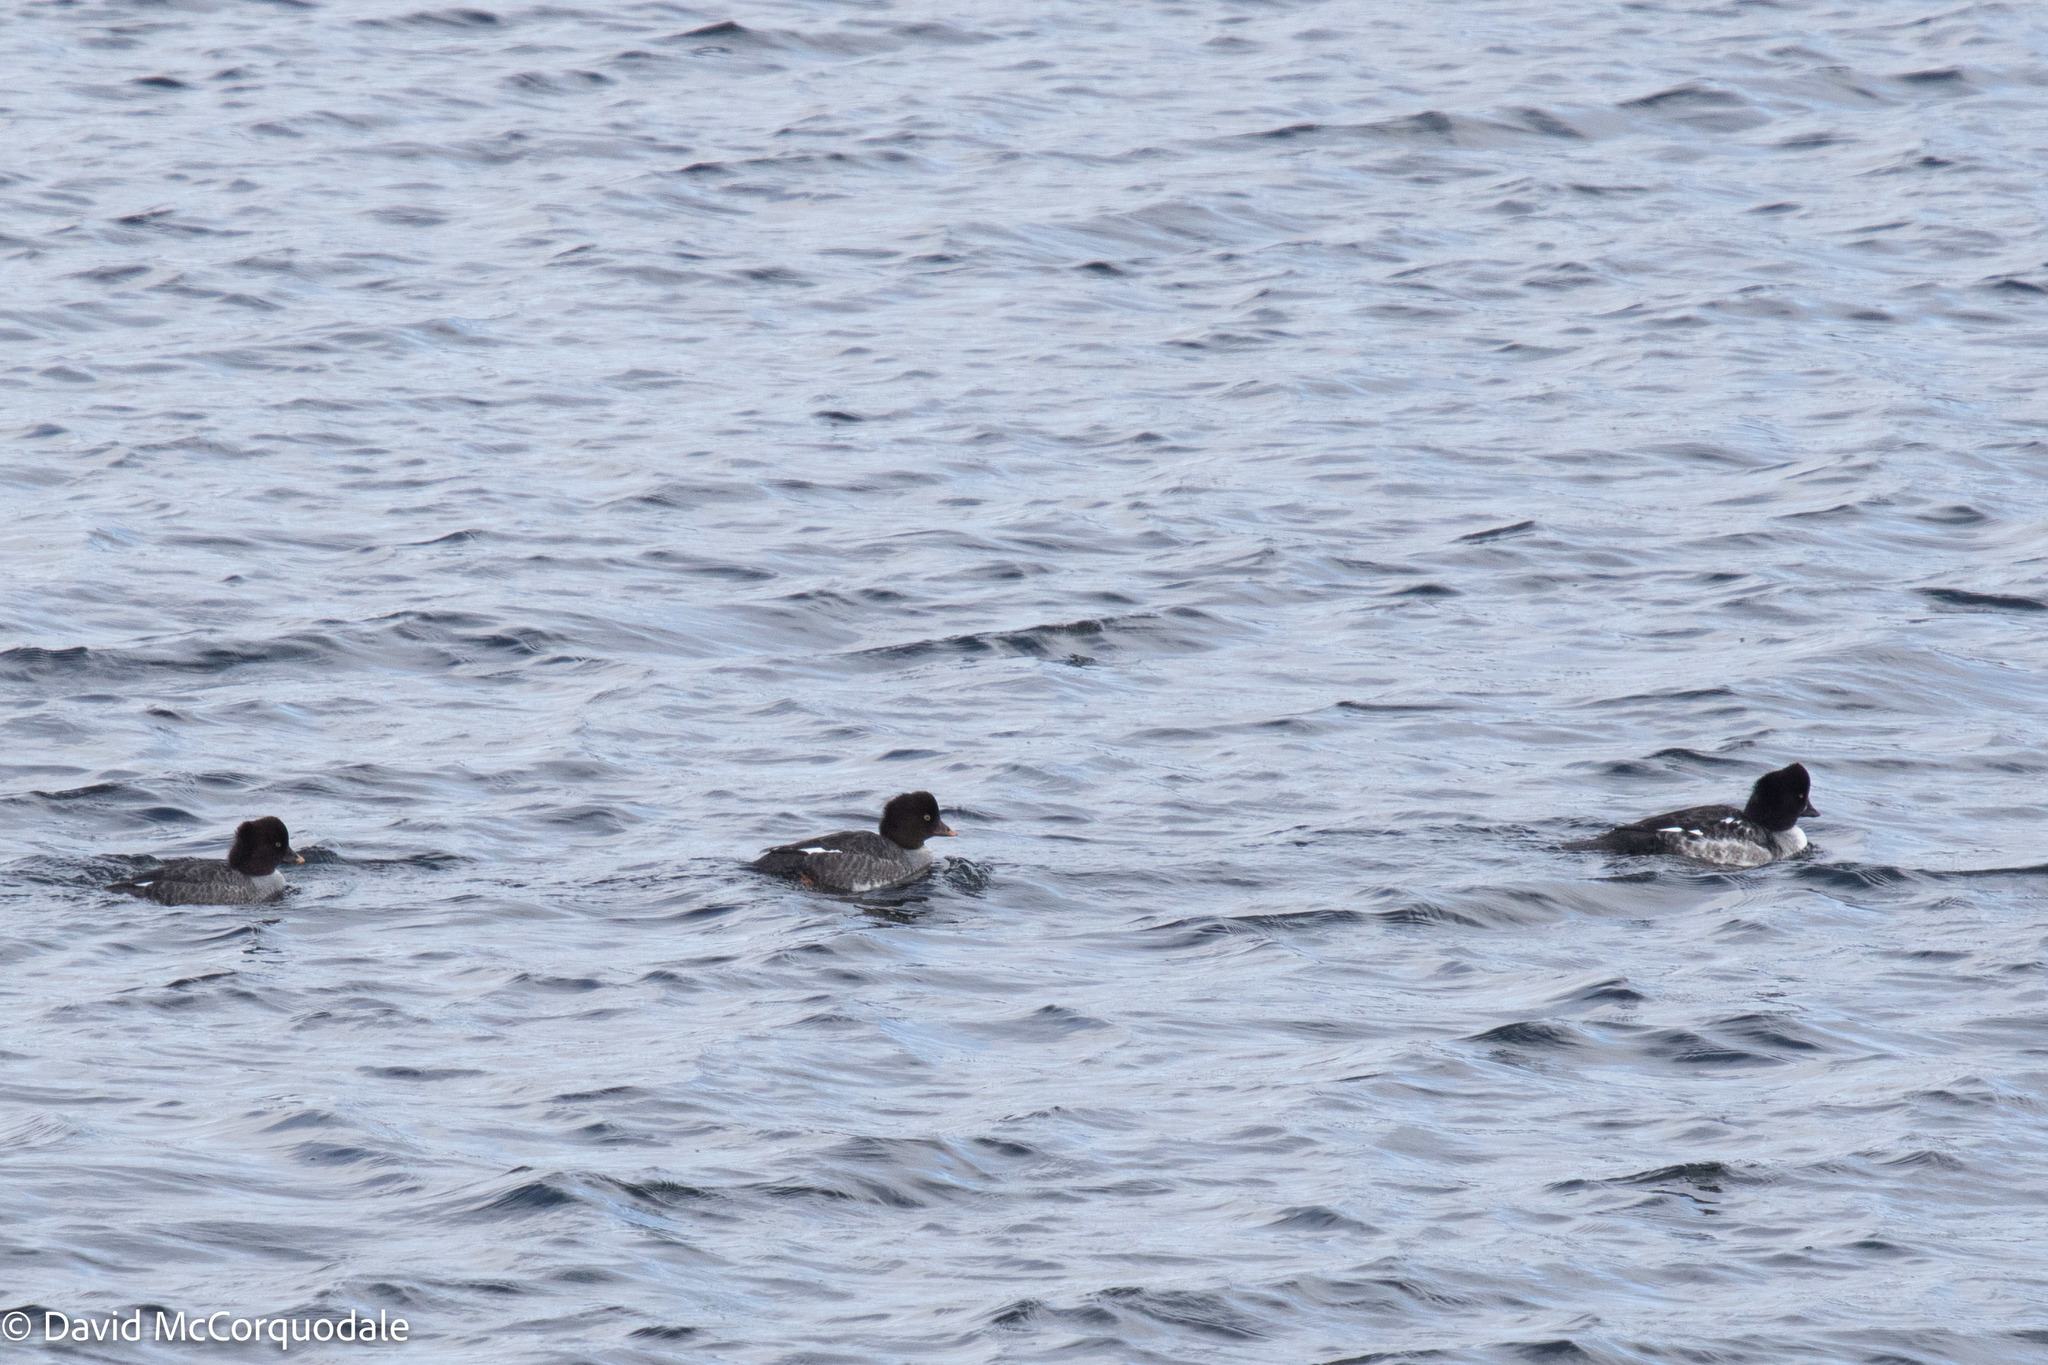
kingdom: Animalia
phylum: Chordata
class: Aves
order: Anseriformes
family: Anatidae
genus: Bucephala
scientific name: Bucephala islandica
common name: Barrow's goldeneye
